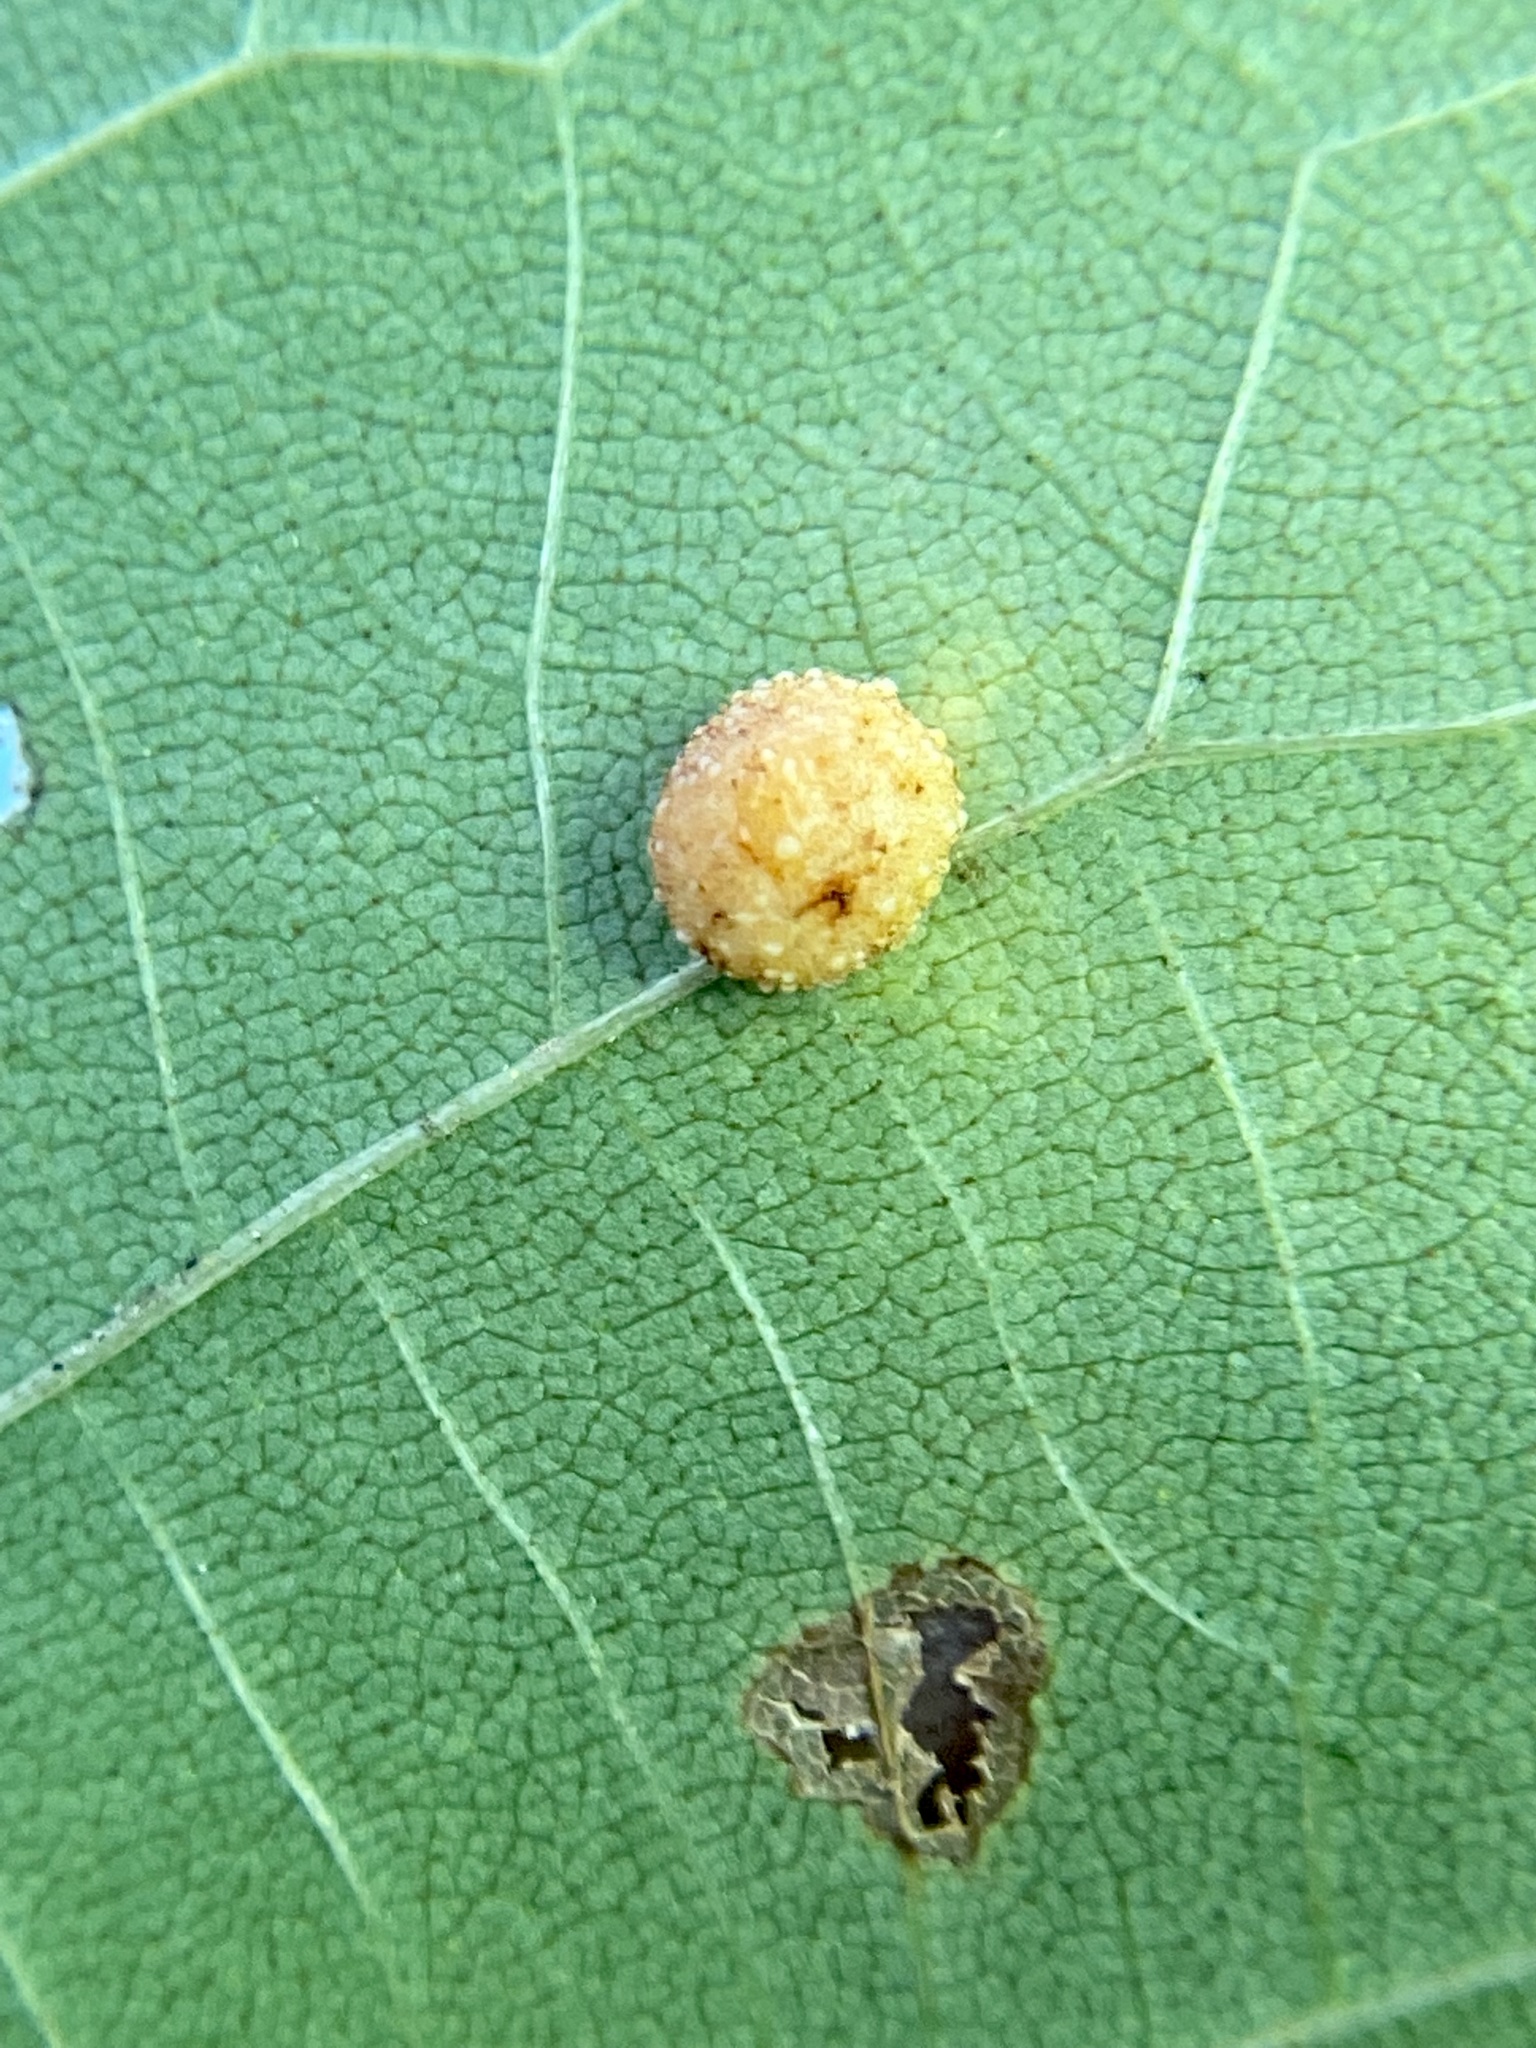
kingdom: Animalia
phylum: Arthropoda
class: Insecta
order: Diptera
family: Cecidomyiidae
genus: Caryomyia
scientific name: Caryomyia tuberculata
